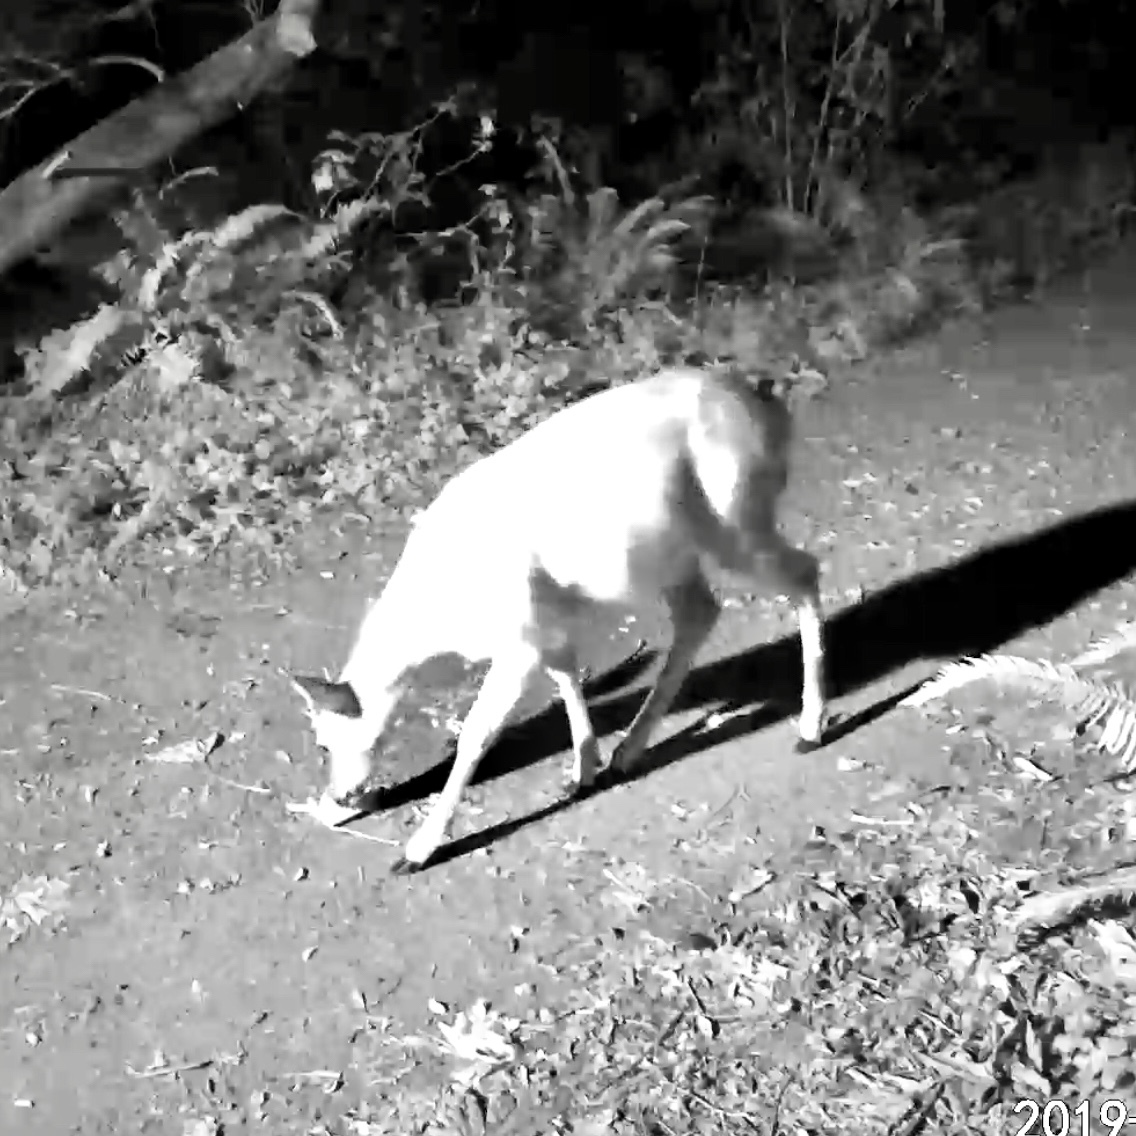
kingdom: Animalia
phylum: Chordata
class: Mammalia
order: Artiodactyla
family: Cervidae
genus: Odocoileus
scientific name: Odocoileus hemionus
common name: Mule deer
